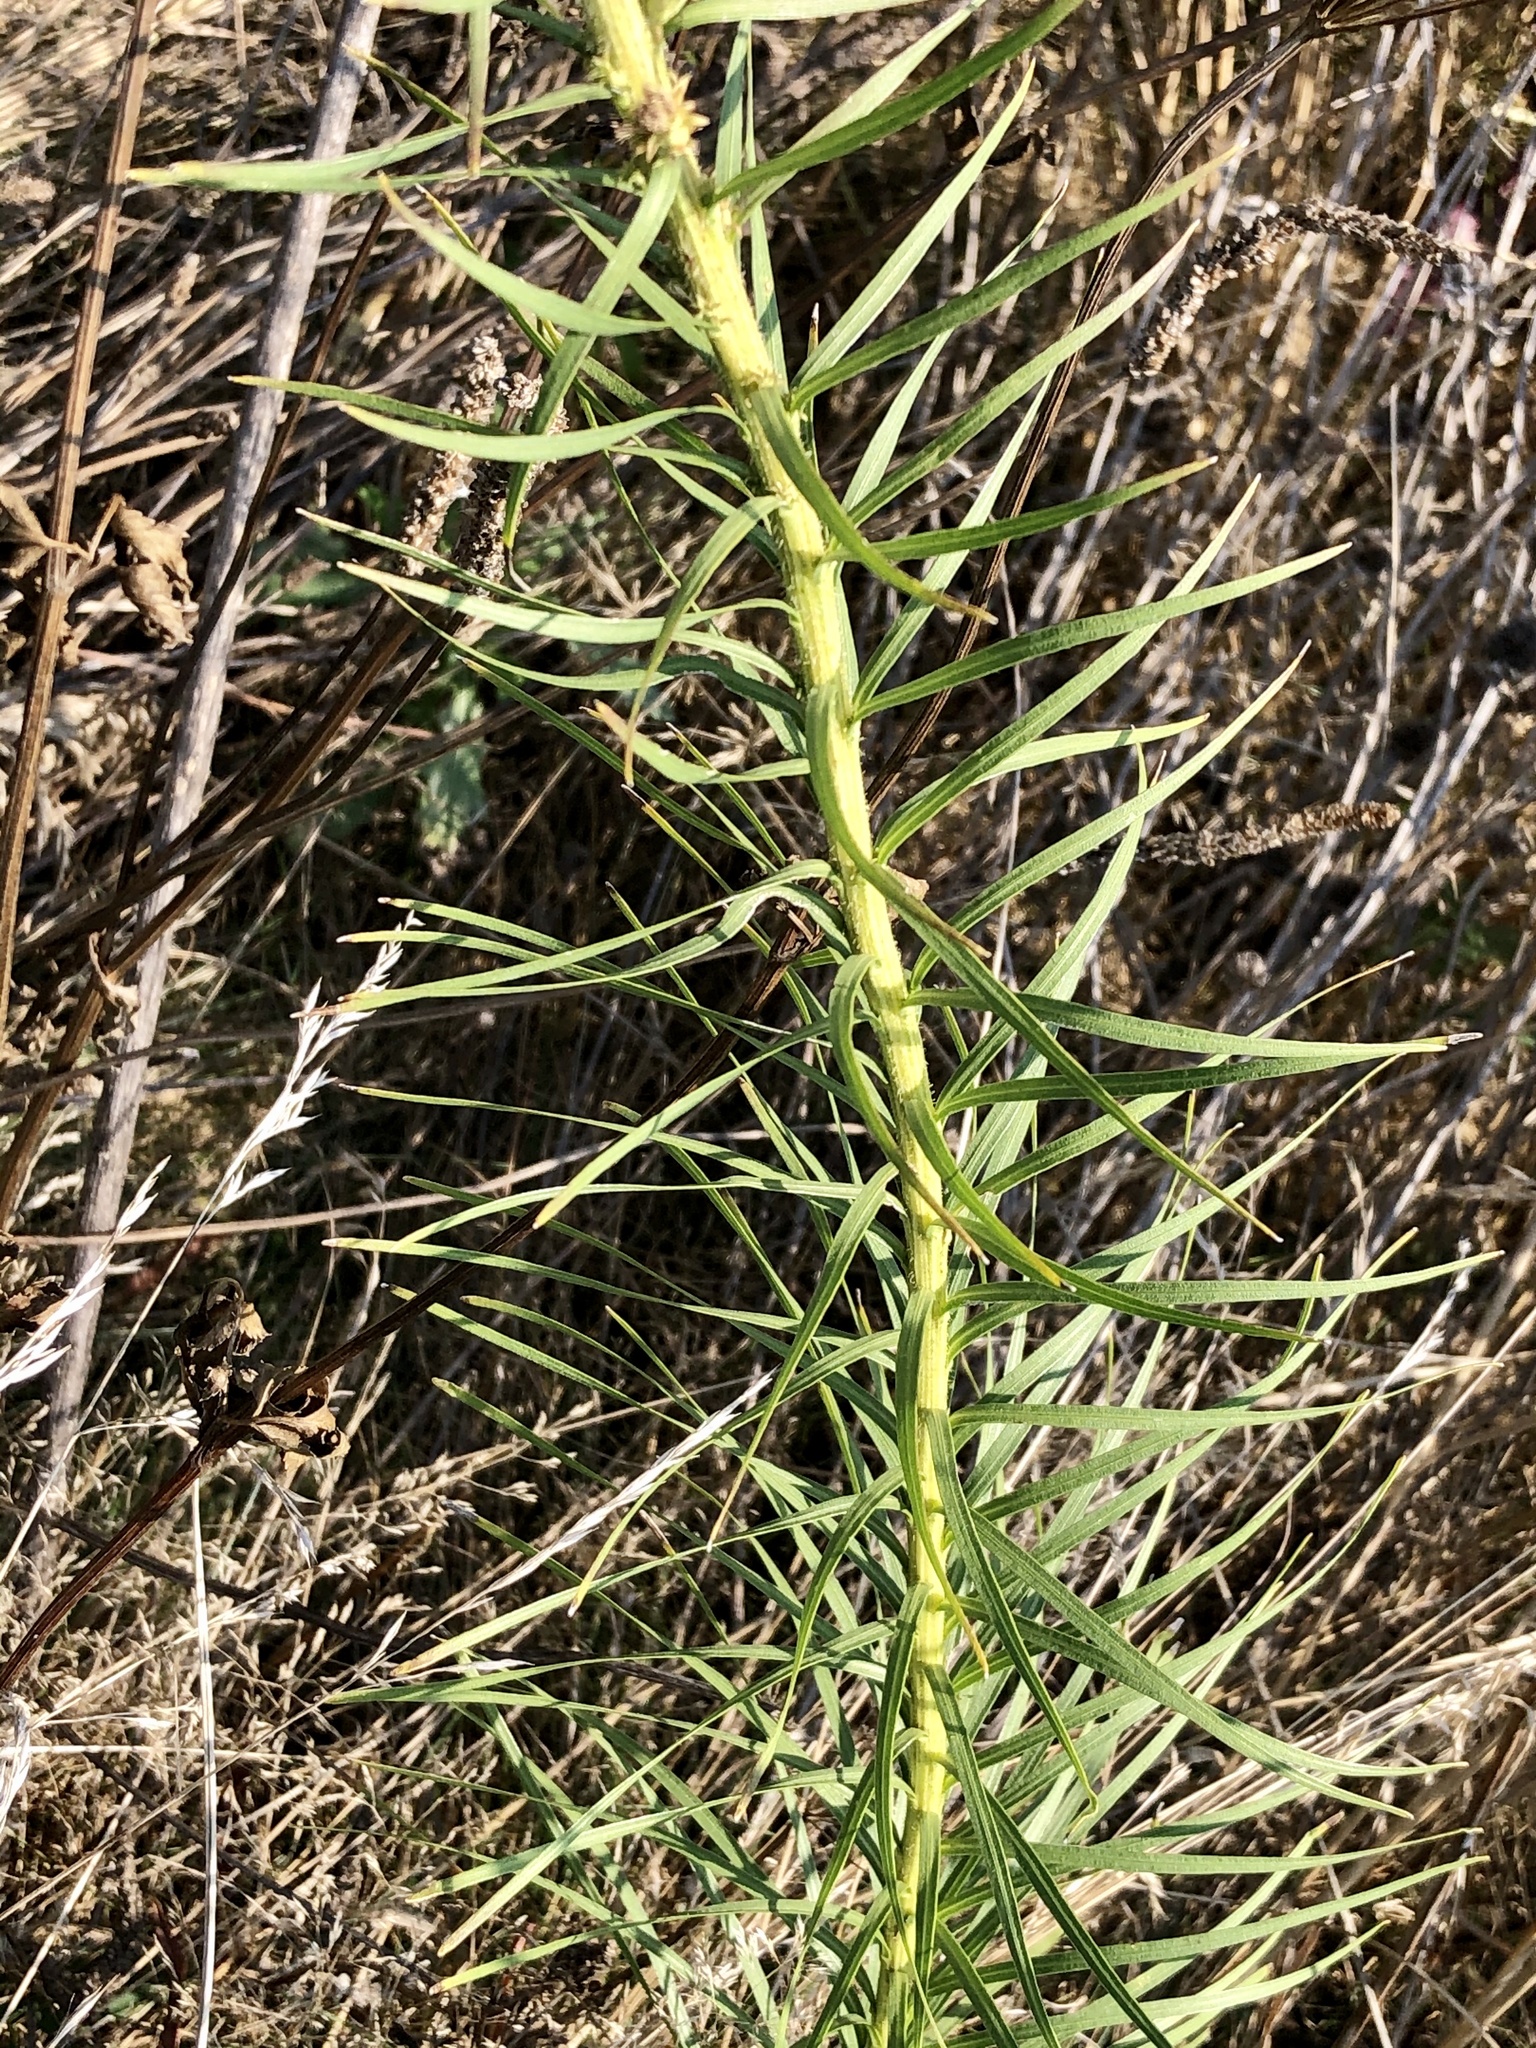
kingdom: Plantae
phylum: Tracheophyta
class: Magnoliopsida
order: Asterales
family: Asteraceae
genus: Liatris
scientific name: Liatris pycnostachya
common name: Cattail gayfeather
